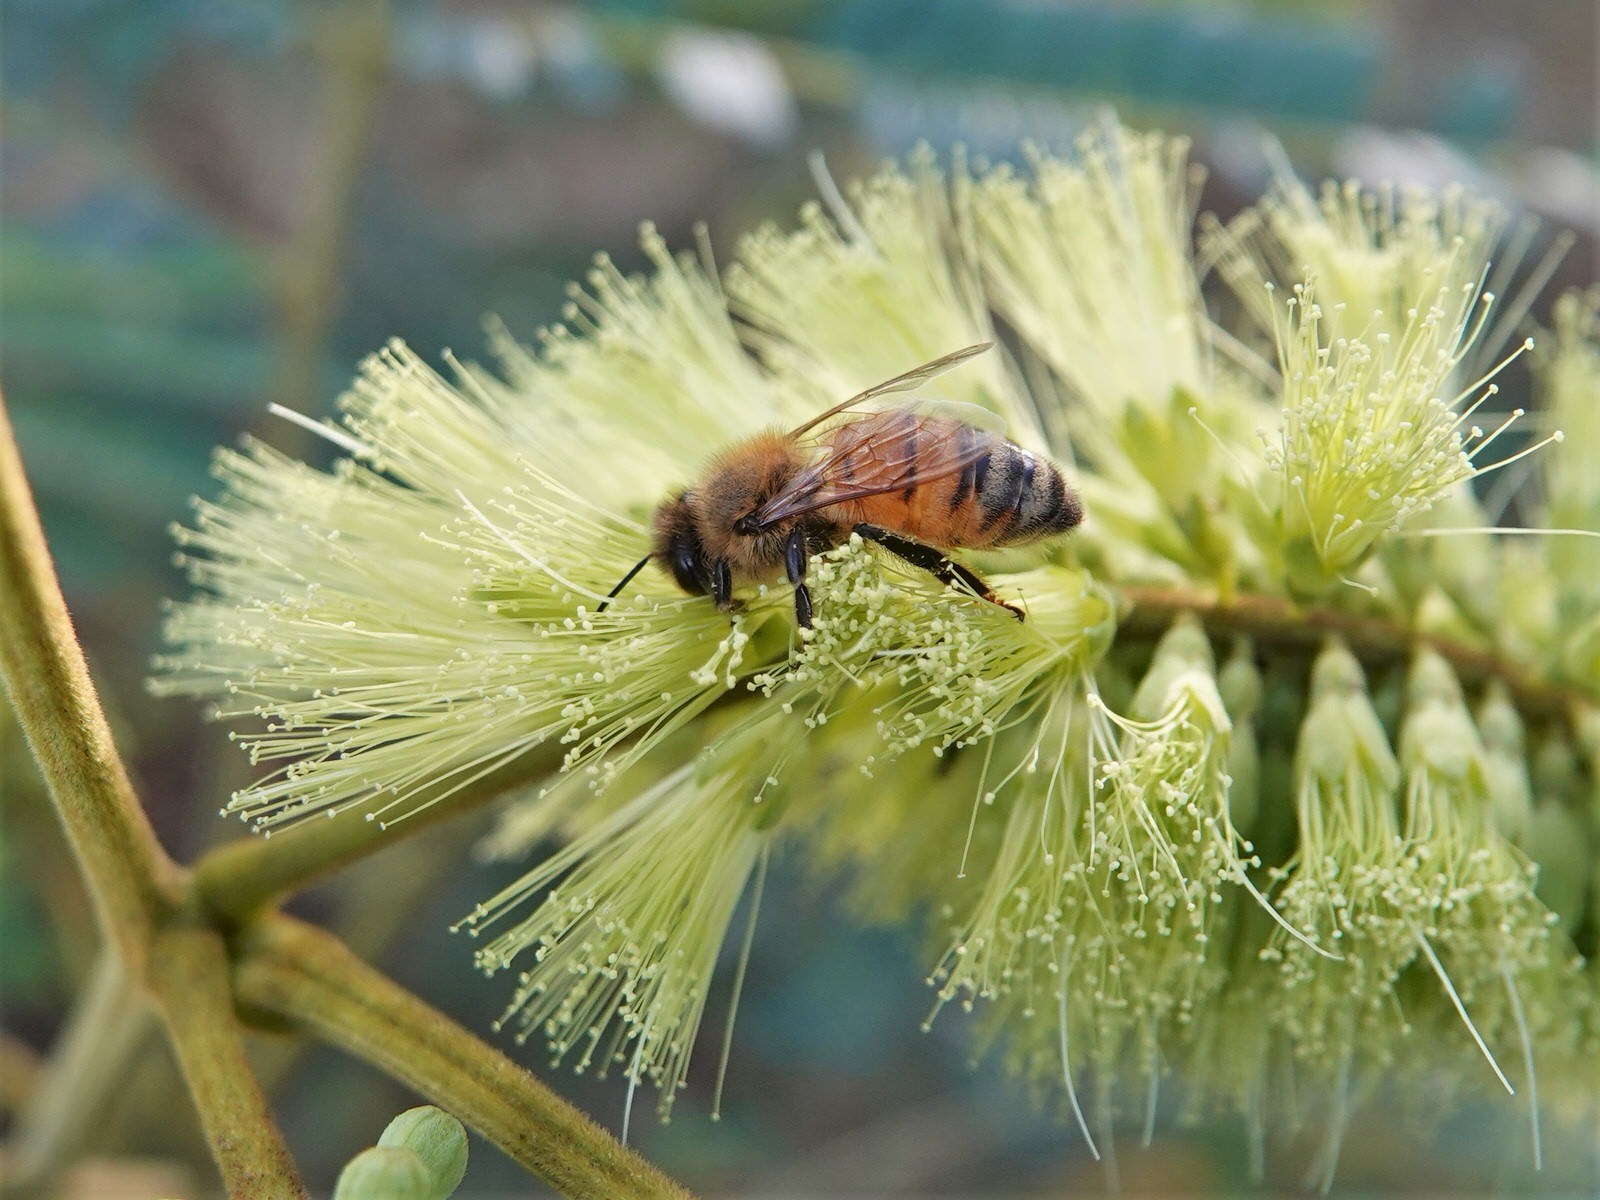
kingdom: Animalia
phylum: Arthropoda
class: Insecta
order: Hymenoptera
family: Apidae
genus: Apis
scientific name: Apis mellifera
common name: Honey bee
